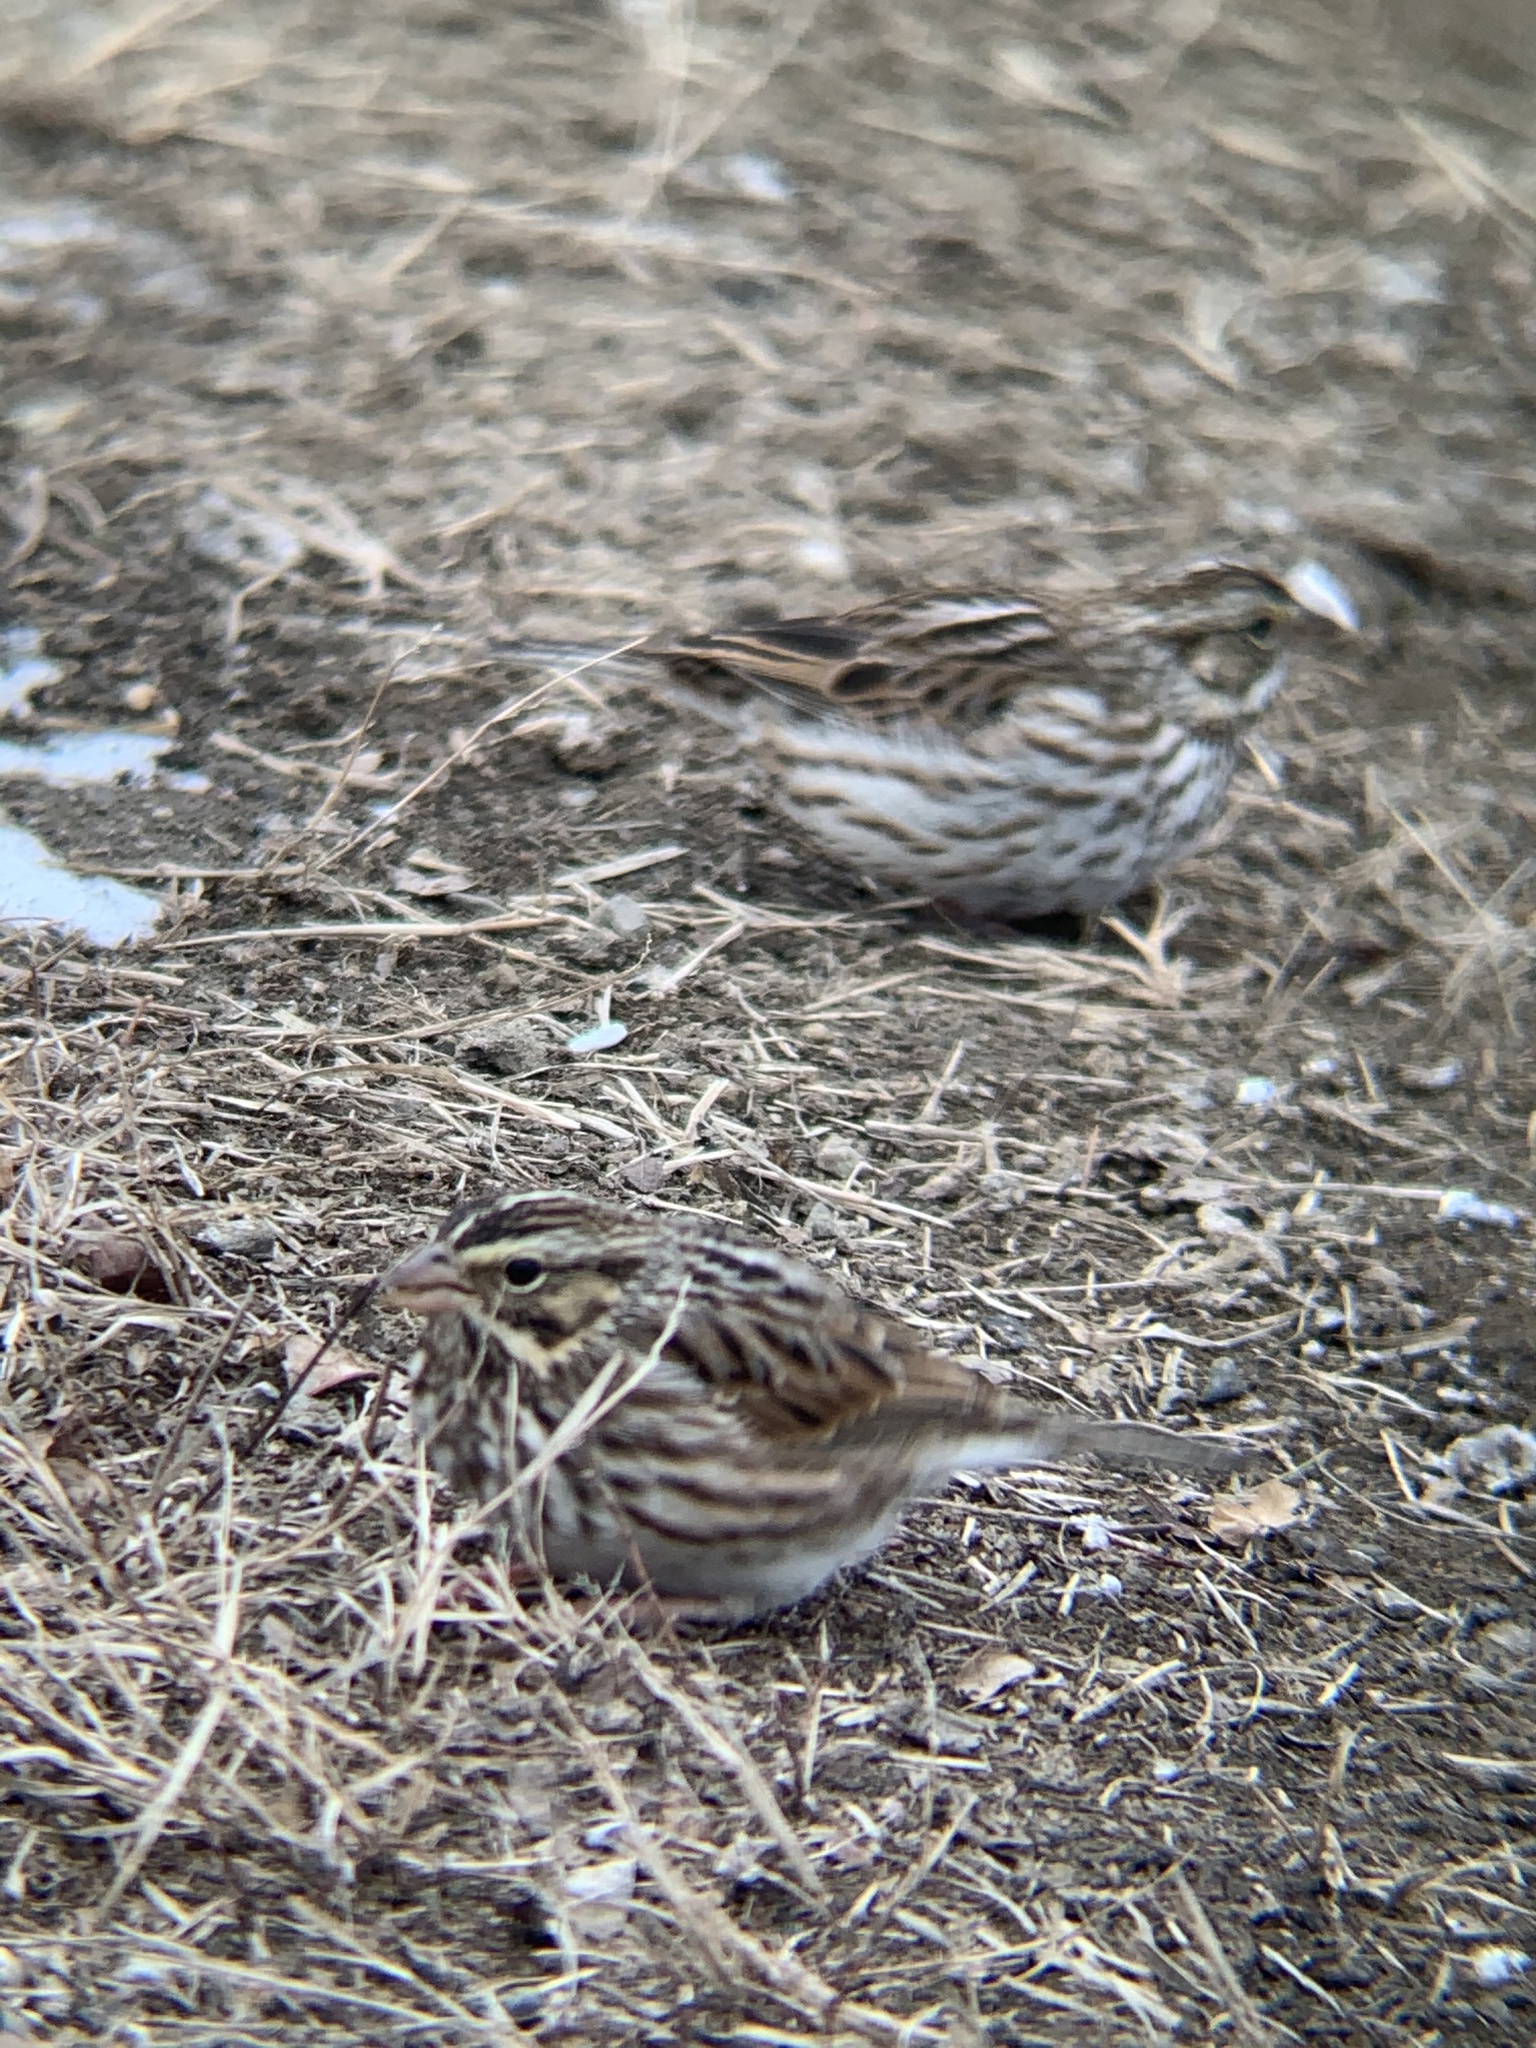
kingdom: Animalia
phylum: Chordata
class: Aves
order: Passeriformes
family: Passerellidae
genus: Passerculus
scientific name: Passerculus sandwichensis
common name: Savannah sparrow
